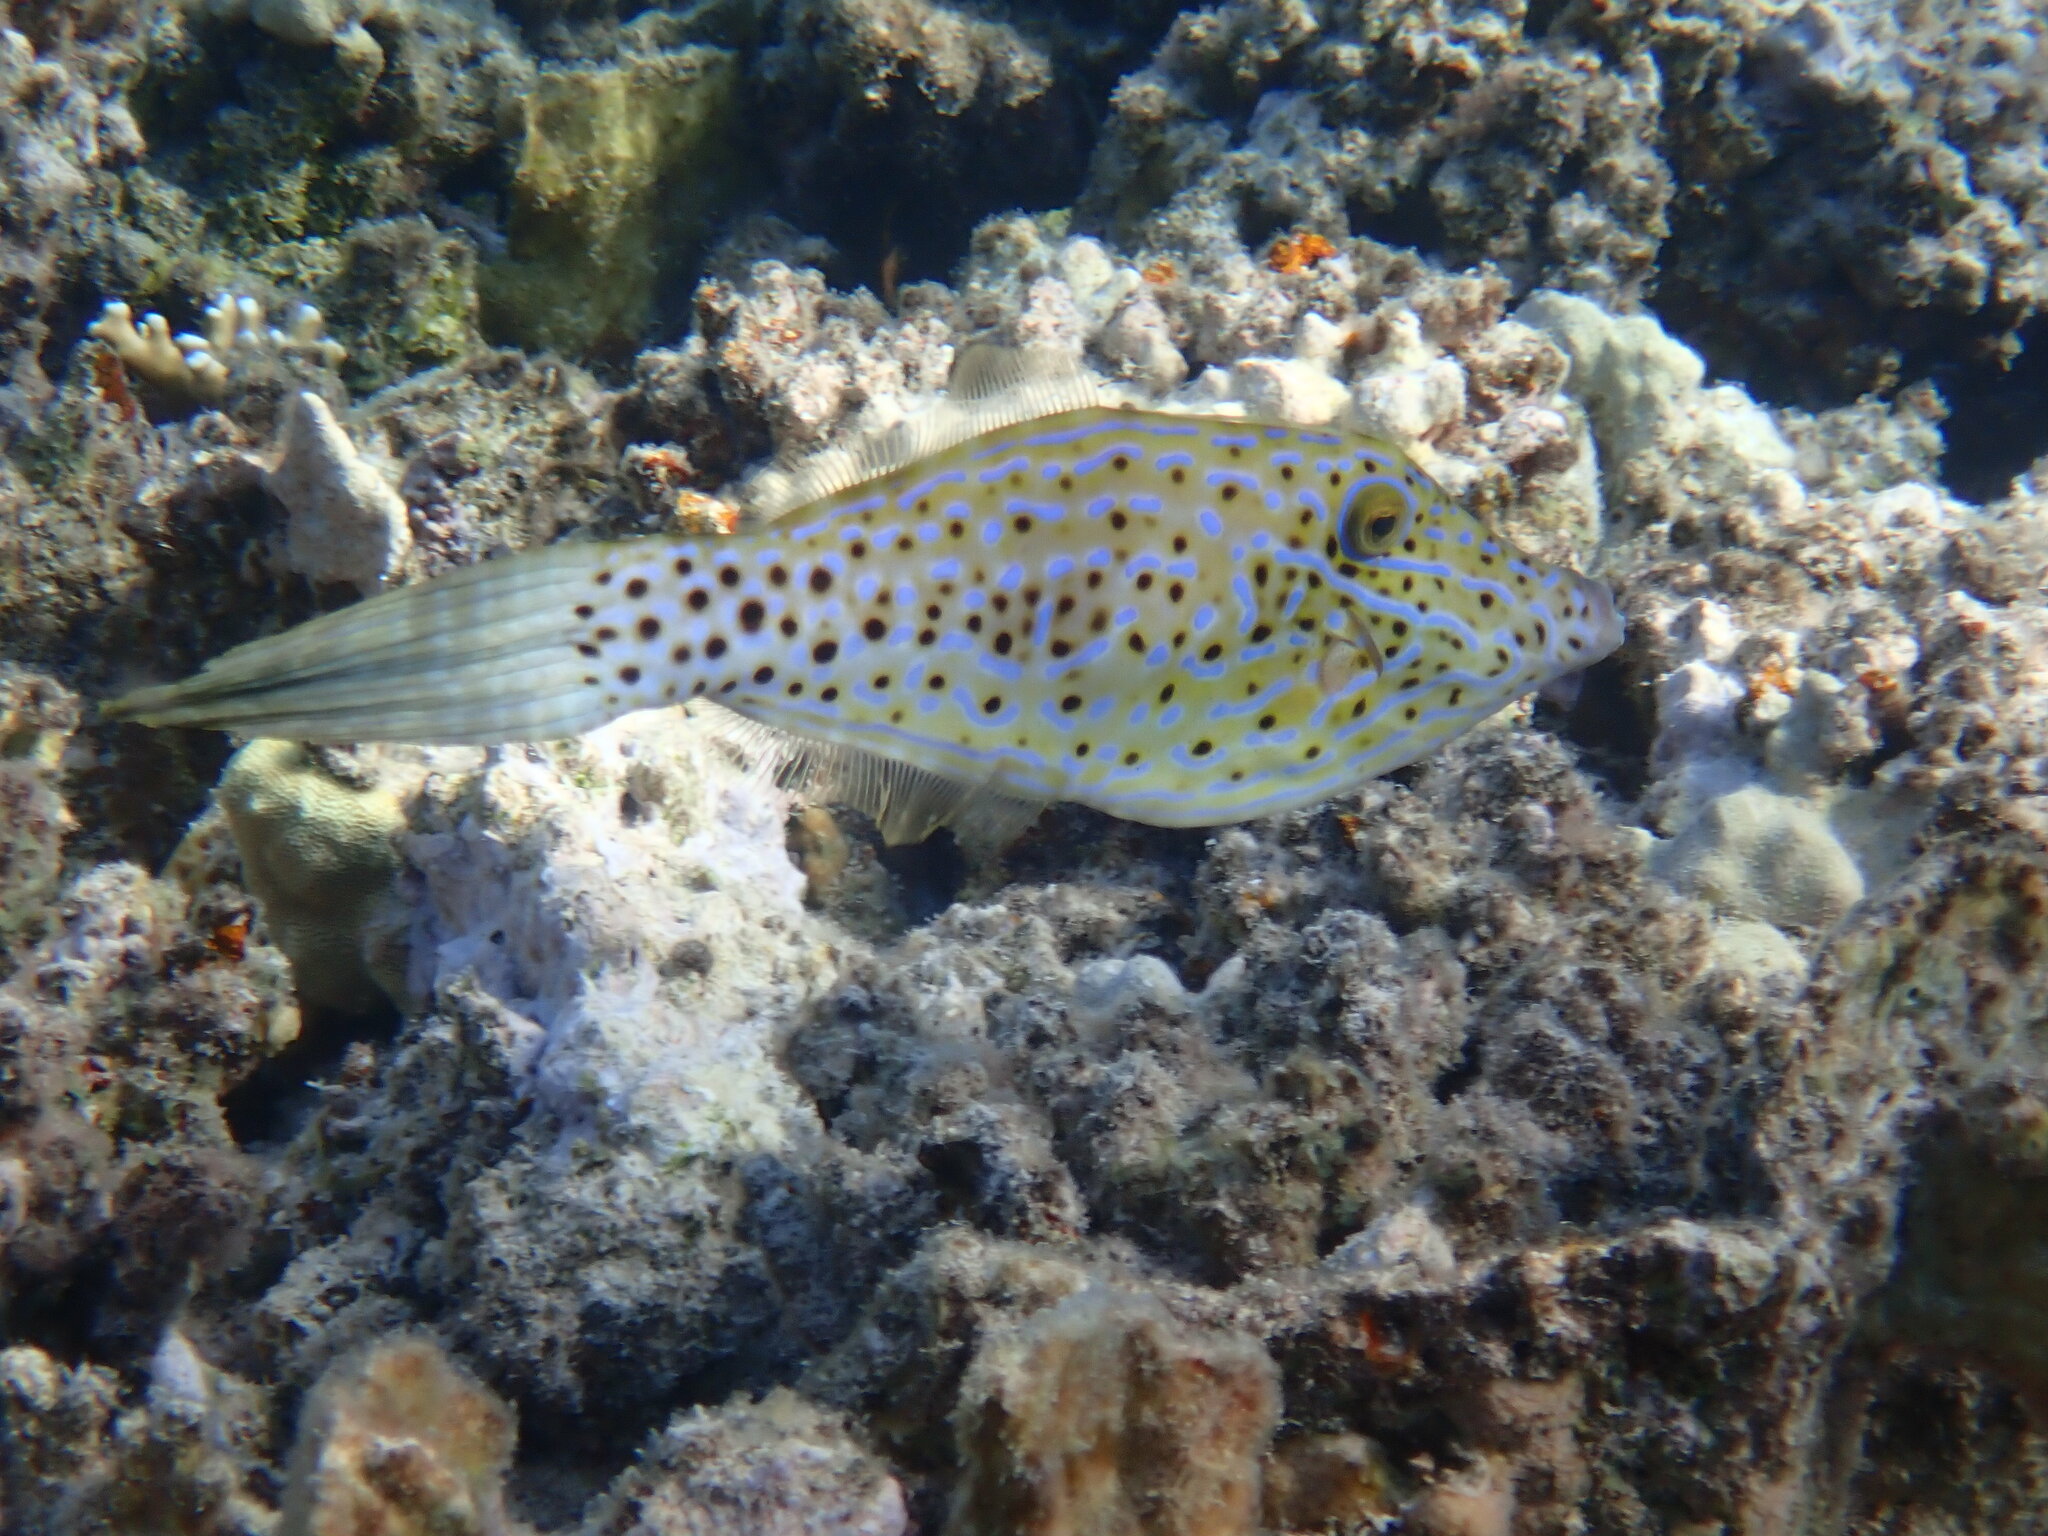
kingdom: Animalia
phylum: Chordata
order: Tetraodontiformes
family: Monacanthidae
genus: Aluterus
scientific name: Aluterus scriptus
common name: Scribbled leatherjacket filefish
